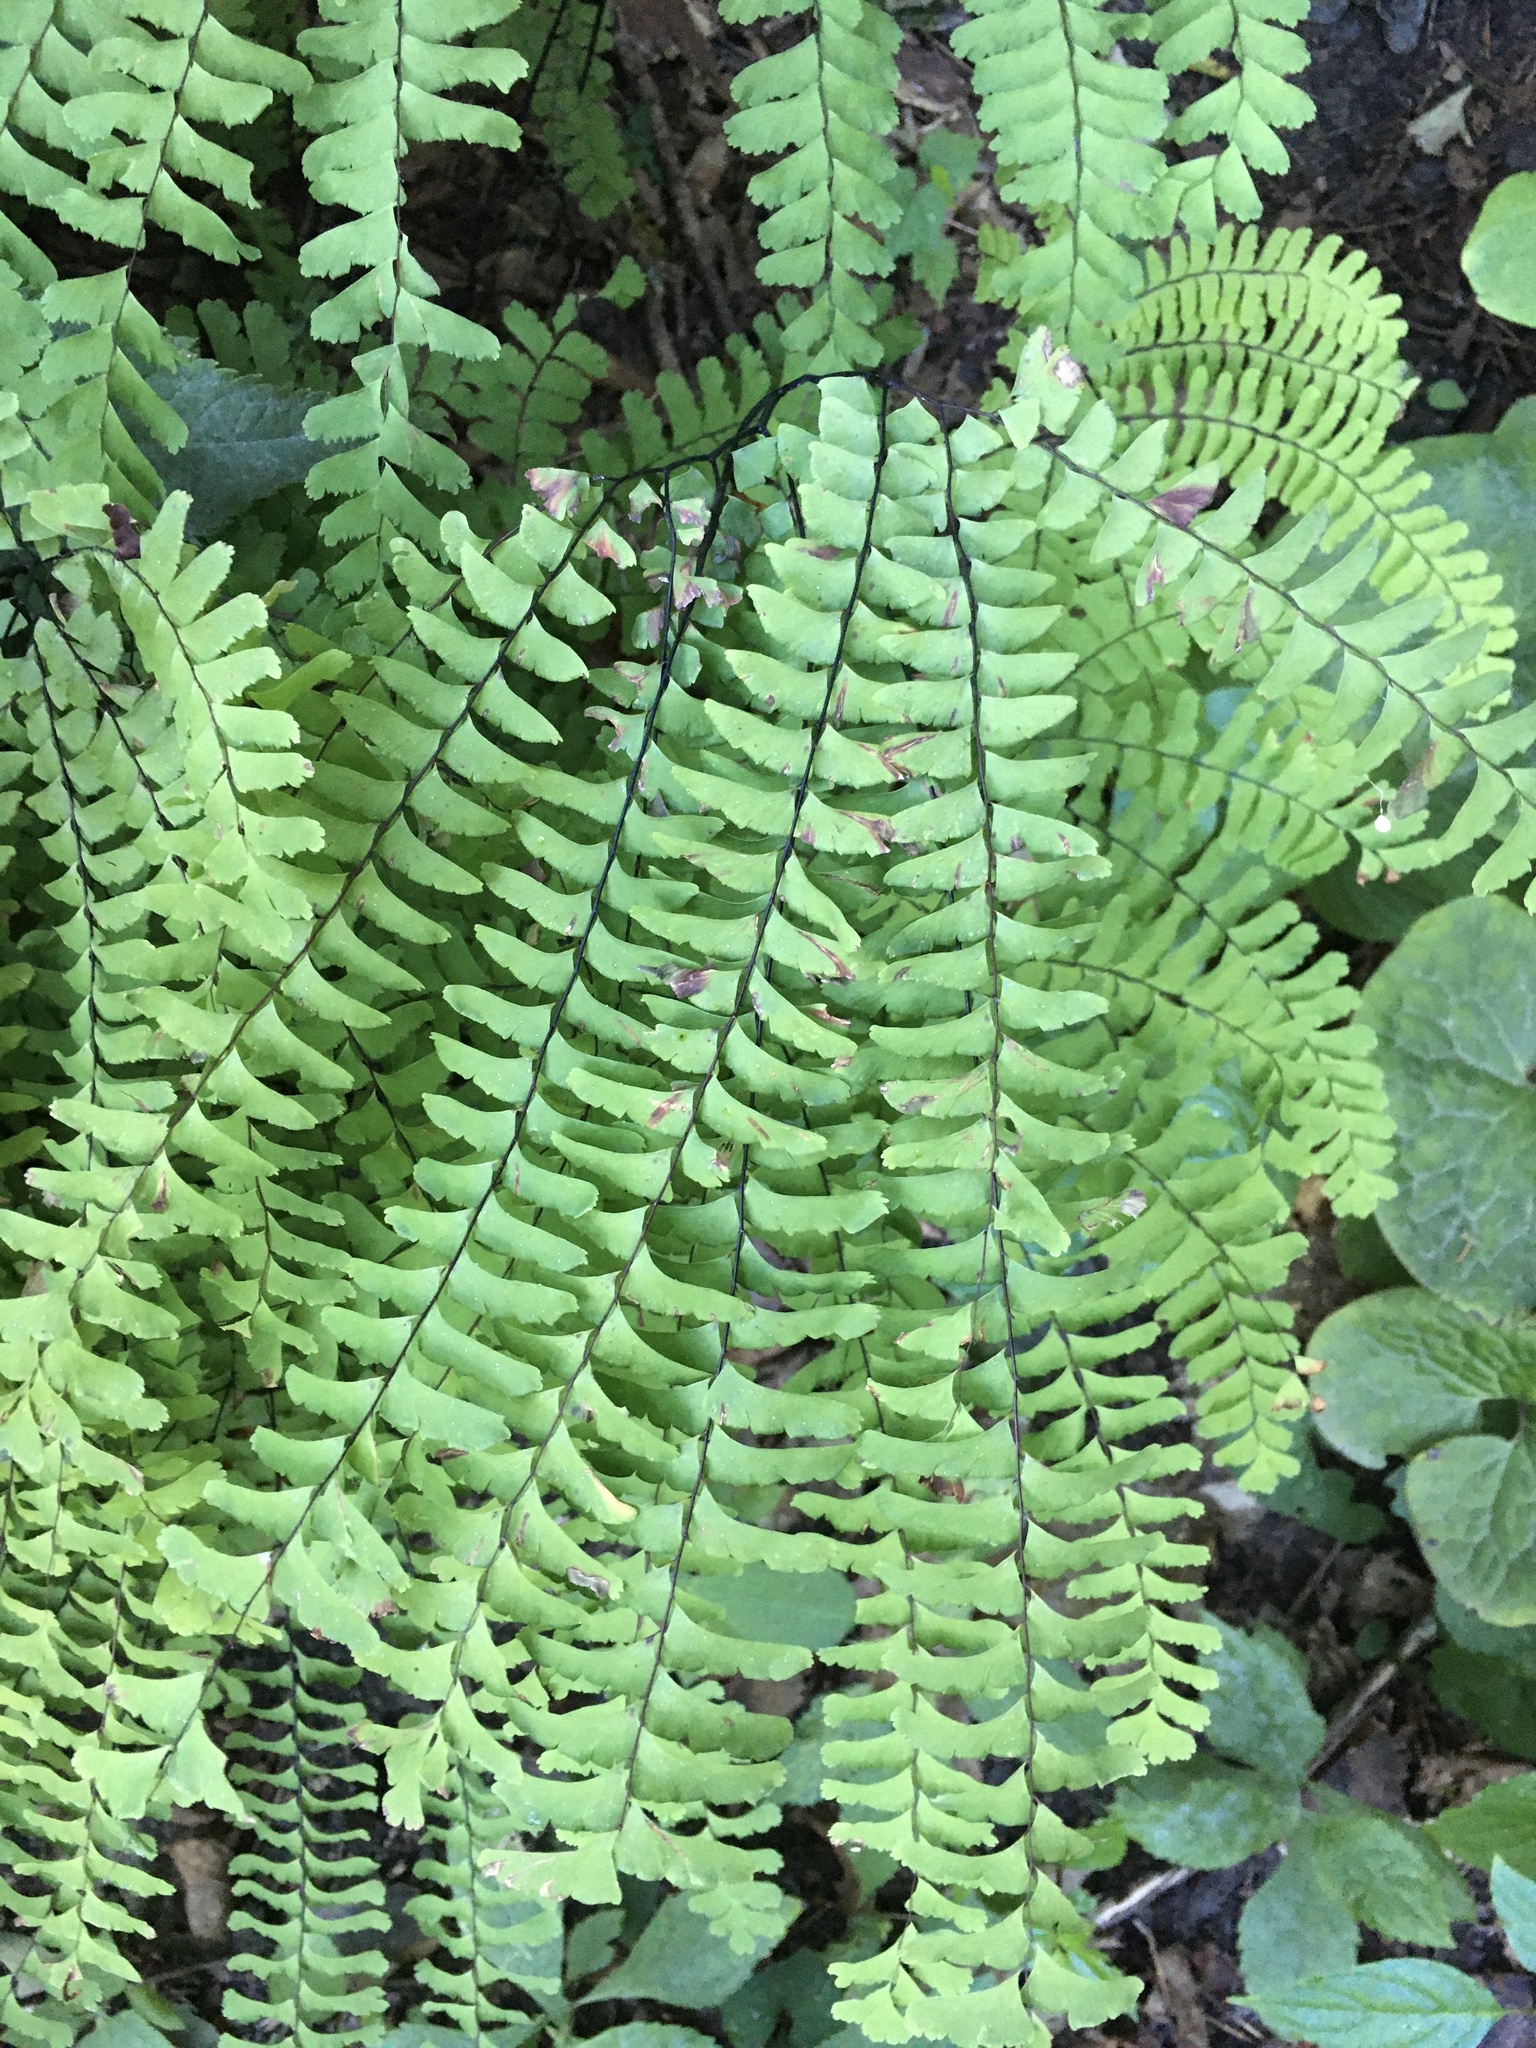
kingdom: Plantae
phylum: Tracheophyta
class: Polypodiopsida
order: Polypodiales
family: Pteridaceae
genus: Adiantum
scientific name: Adiantum pedatum
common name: Five-finger fern
